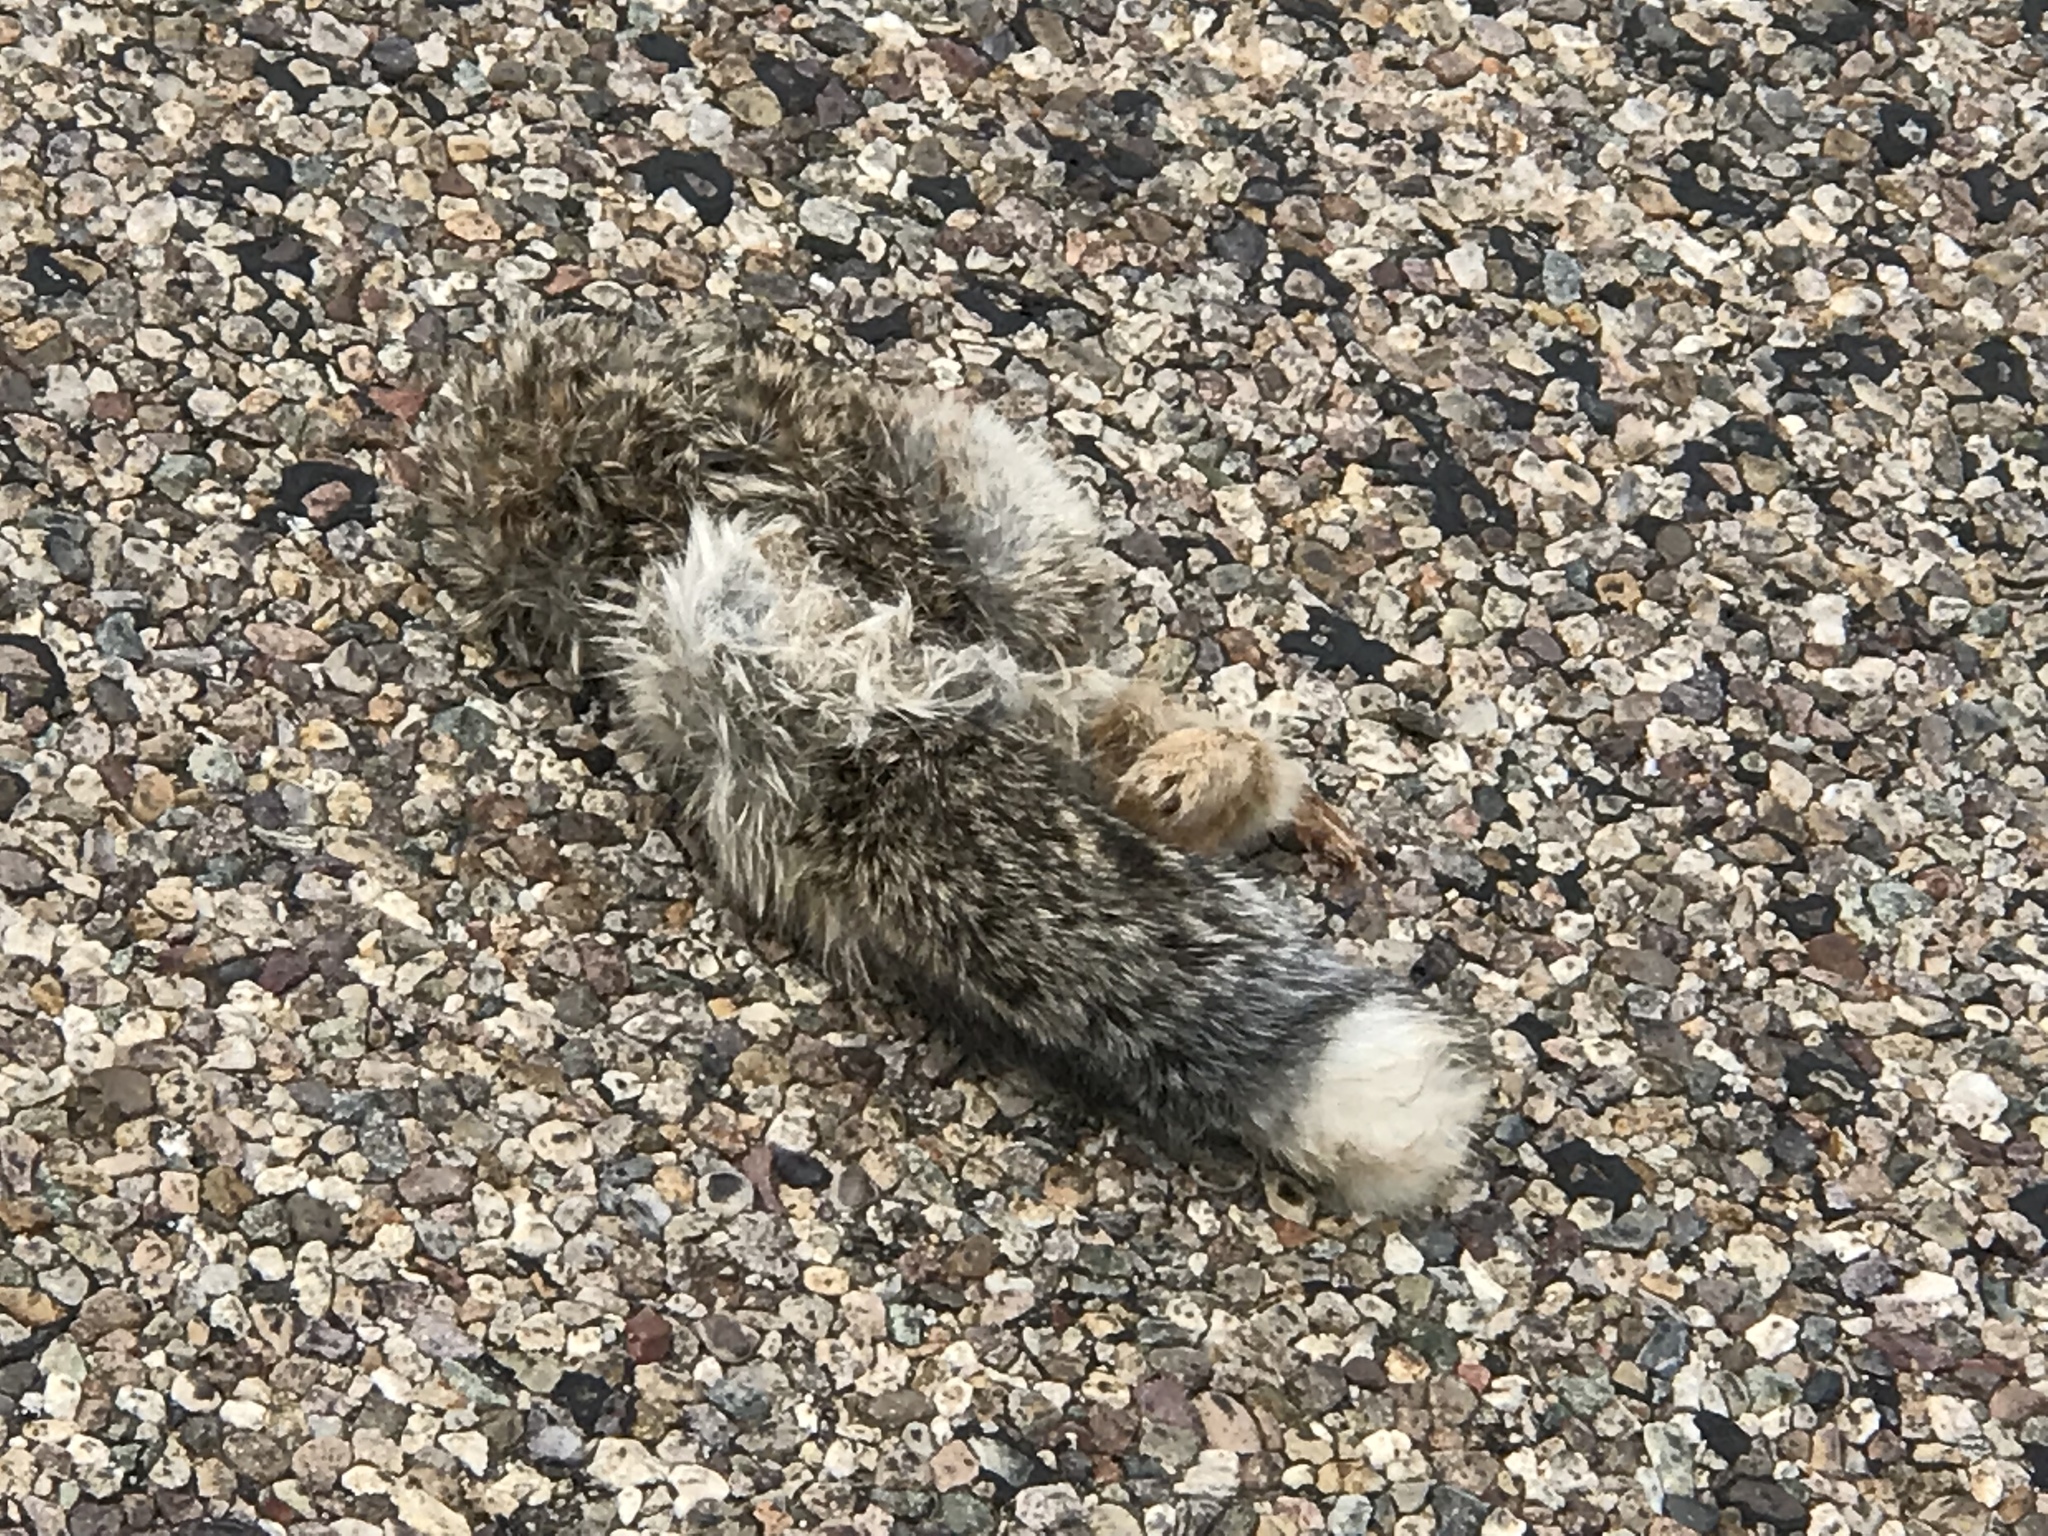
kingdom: Animalia
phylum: Chordata
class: Mammalia
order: Lagomorpha
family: Leporidae
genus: Sylvilagus
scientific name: Sylvilagus audubonii
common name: Desert cottontail
